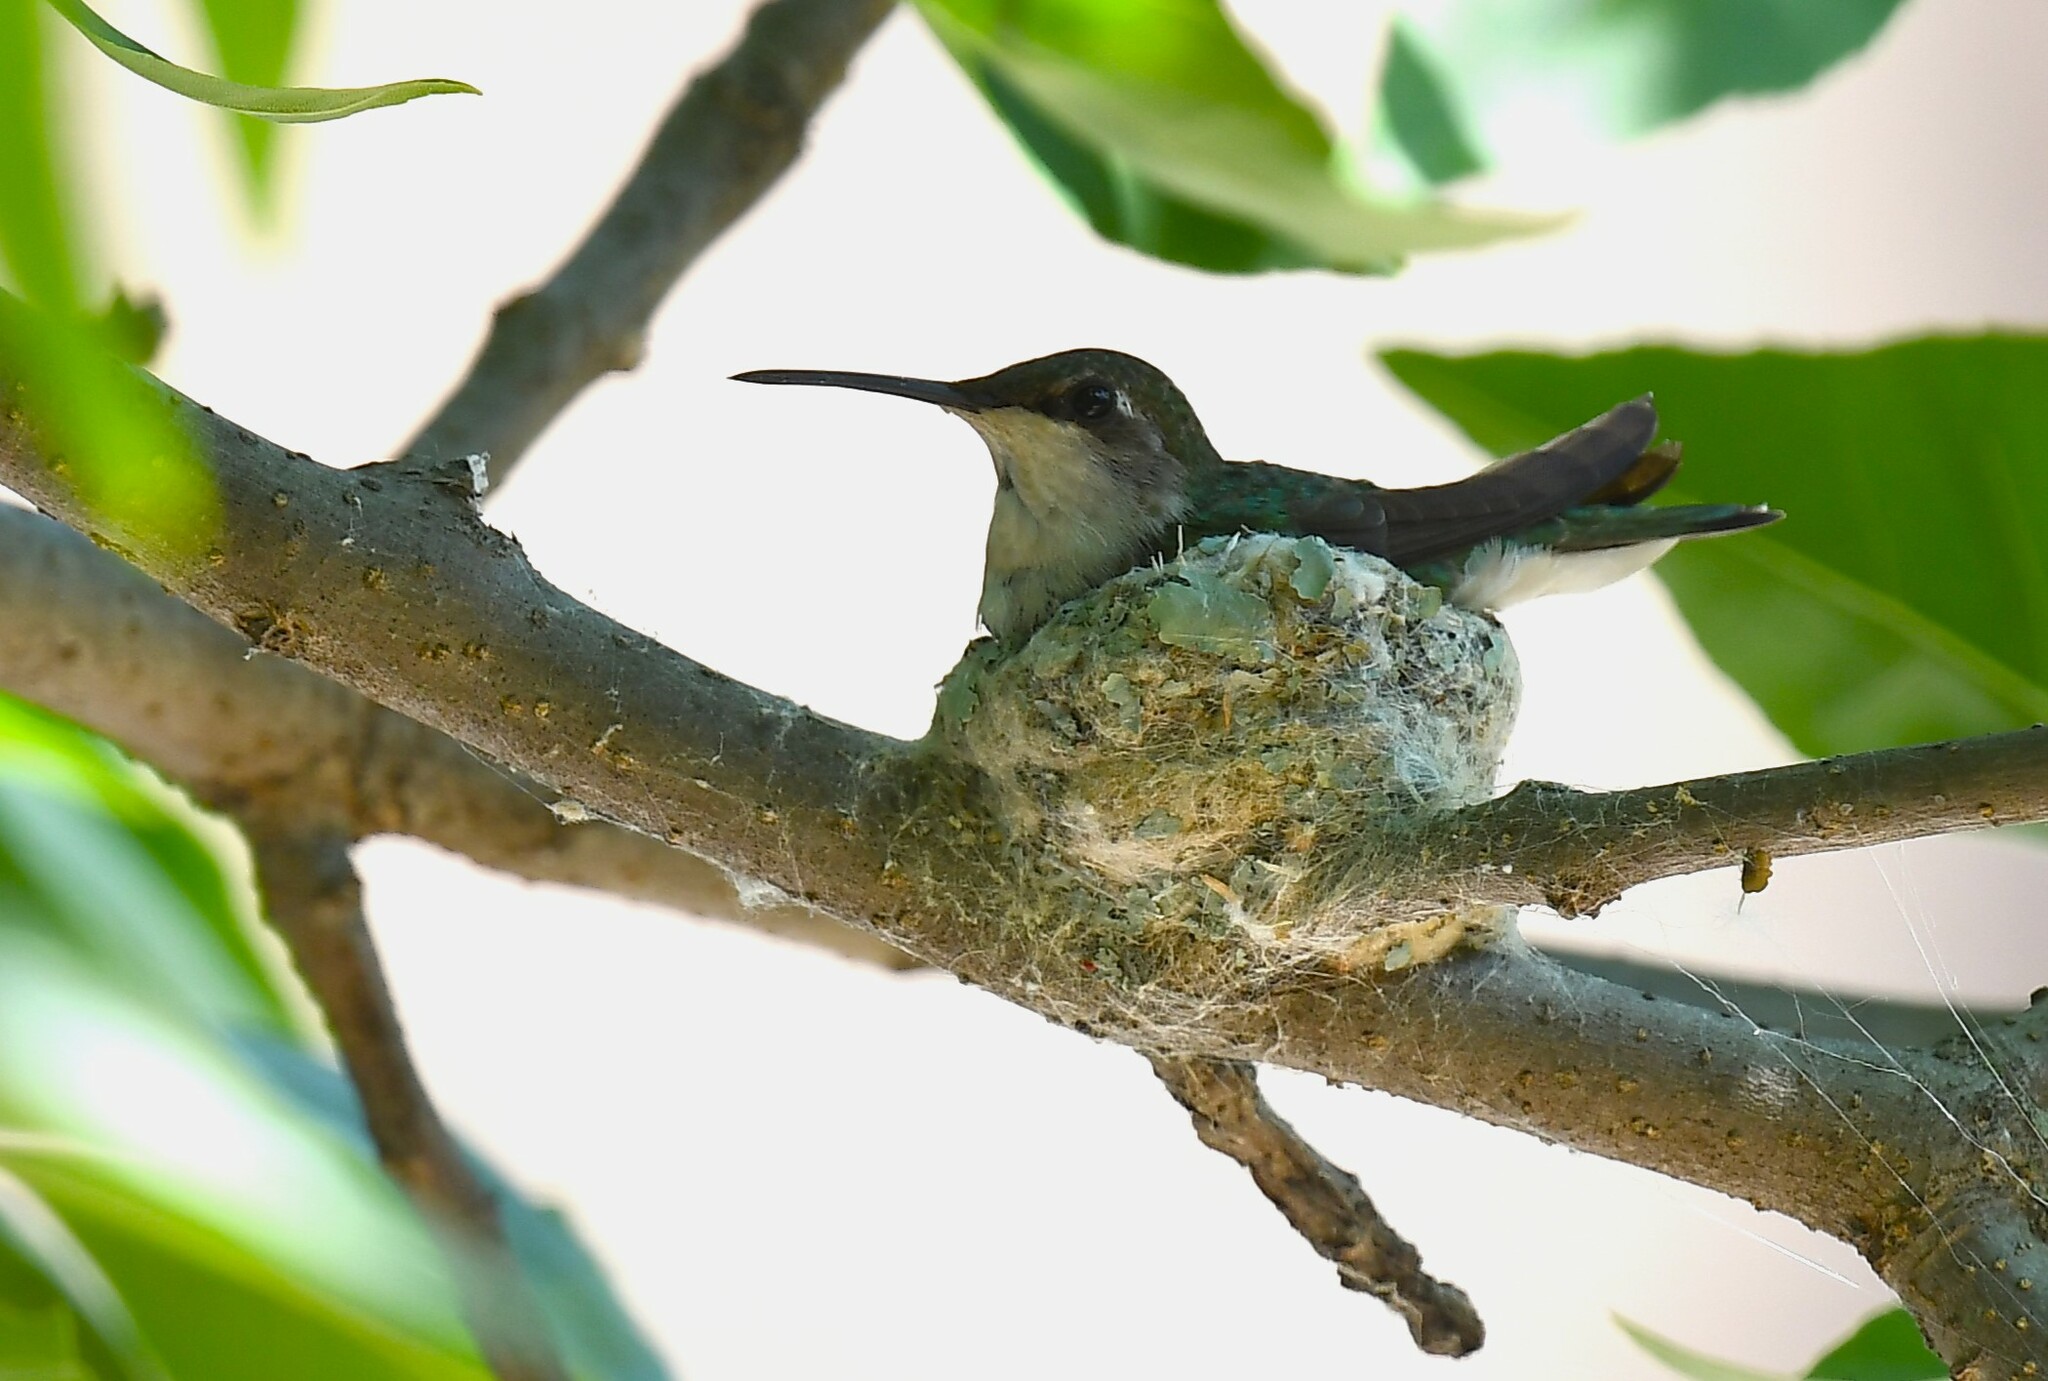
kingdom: Animalia
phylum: Chordata
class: Aves
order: Apodiformes
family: Trochilidae
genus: Archilochus
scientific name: Archilochus colubris
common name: Ruby-throated hummingbird
